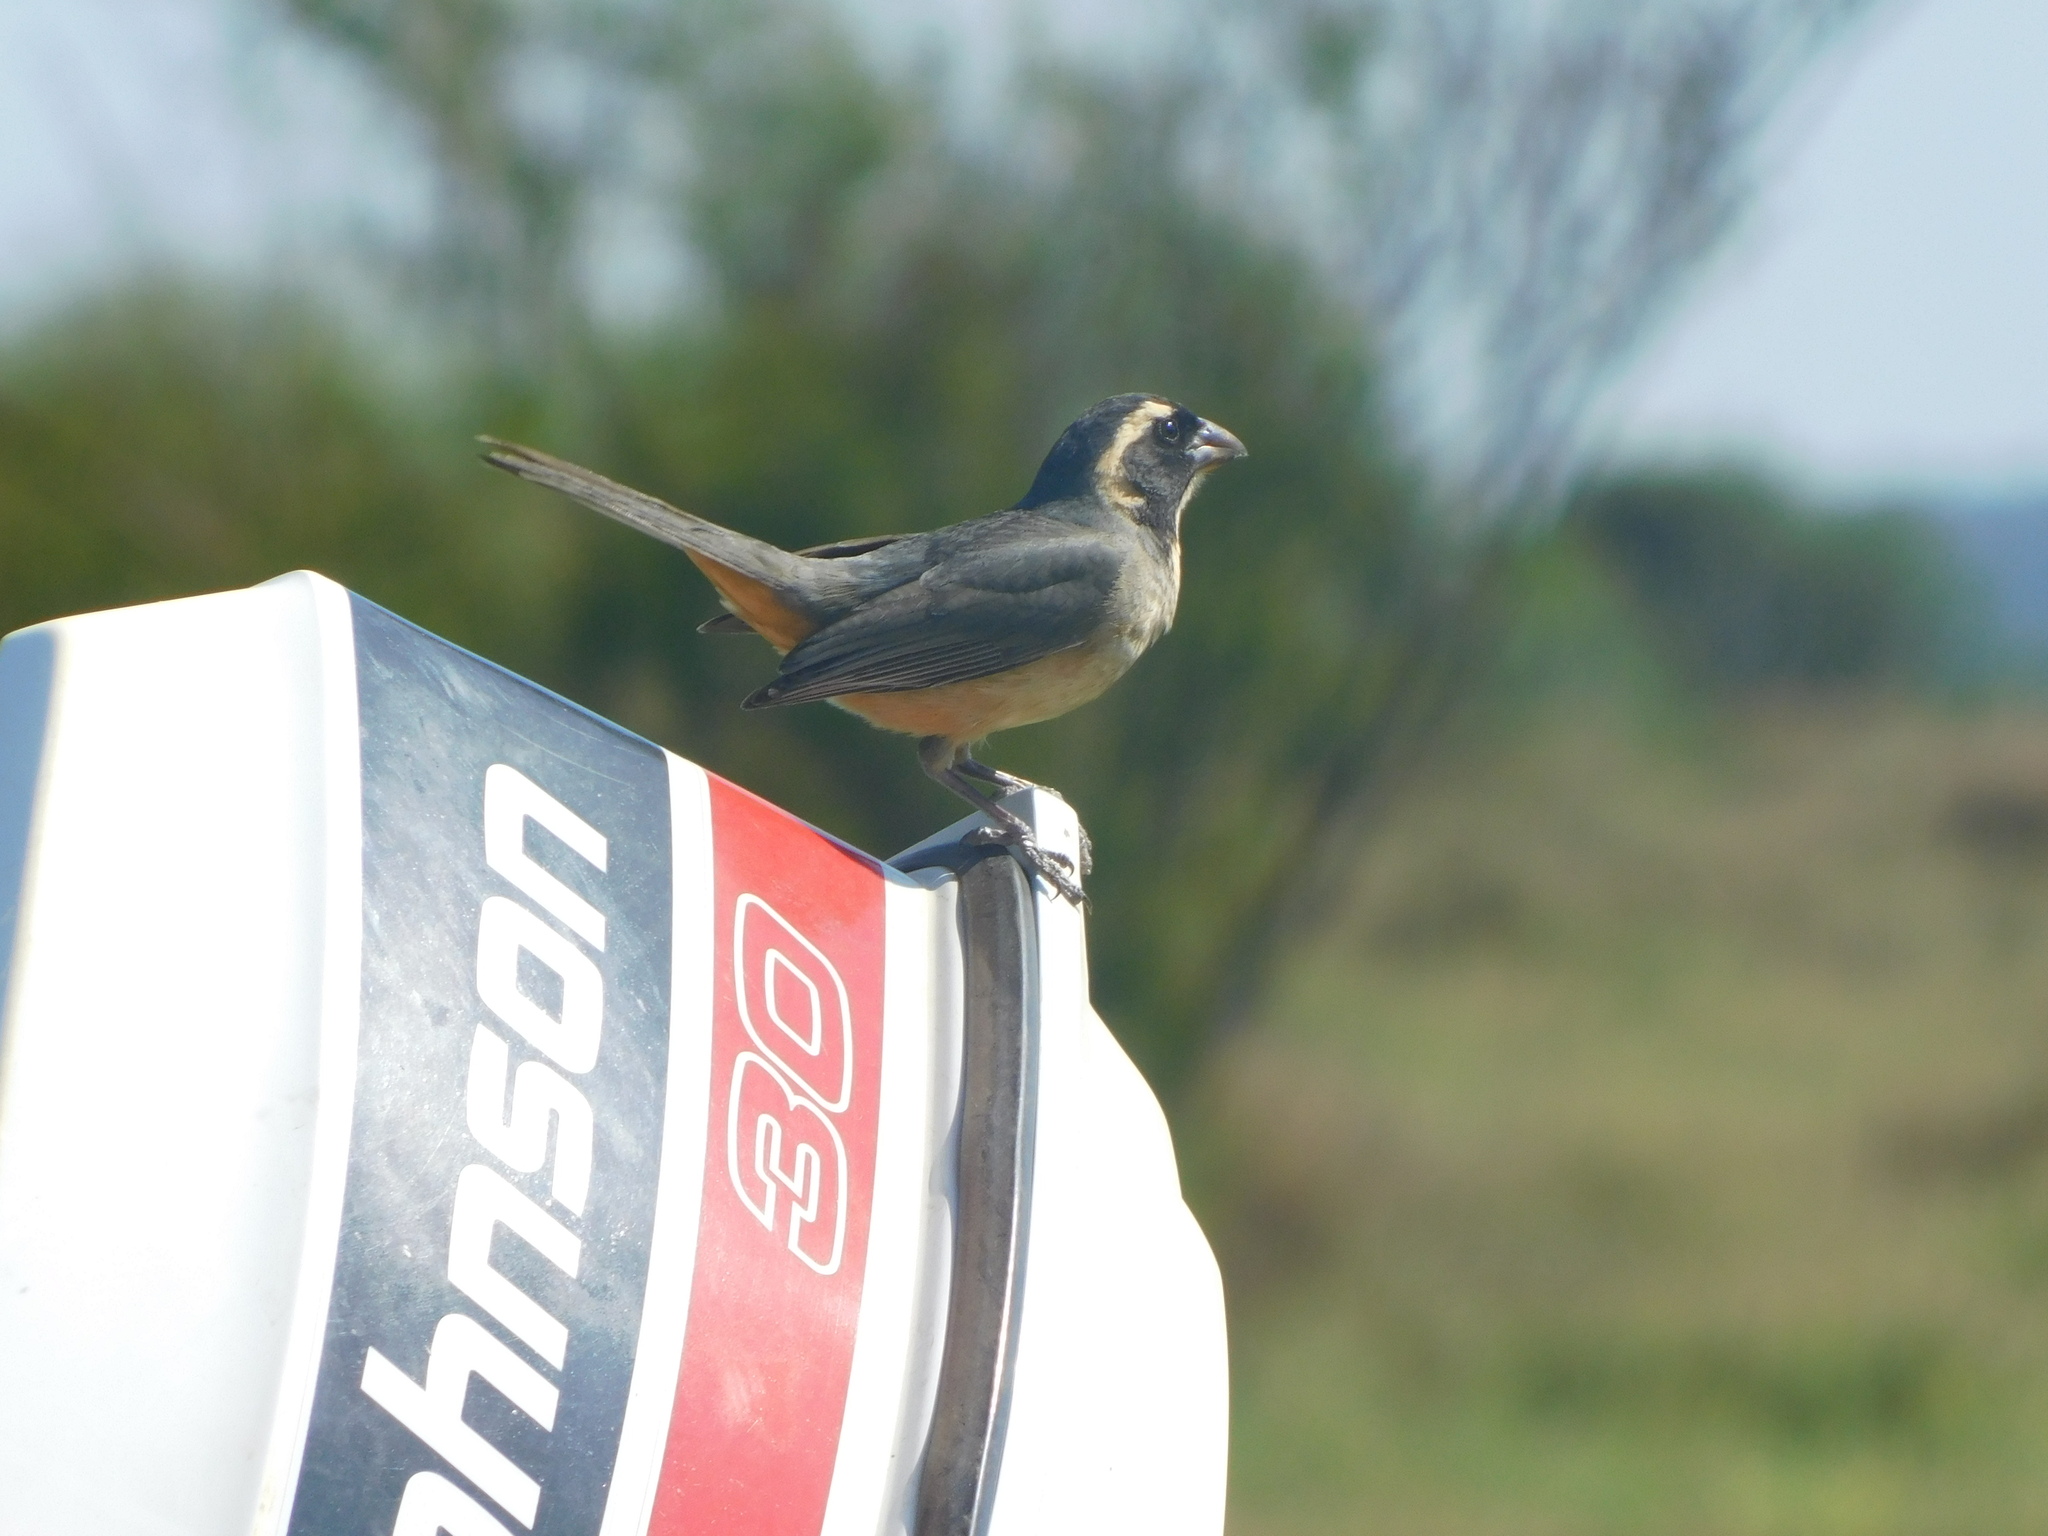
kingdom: Animalia
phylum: Chordata
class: Aves
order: Passeriformes
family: Thraupidae
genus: Saltator
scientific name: Saltator aurantiirostris
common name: Golden-billed saltator
